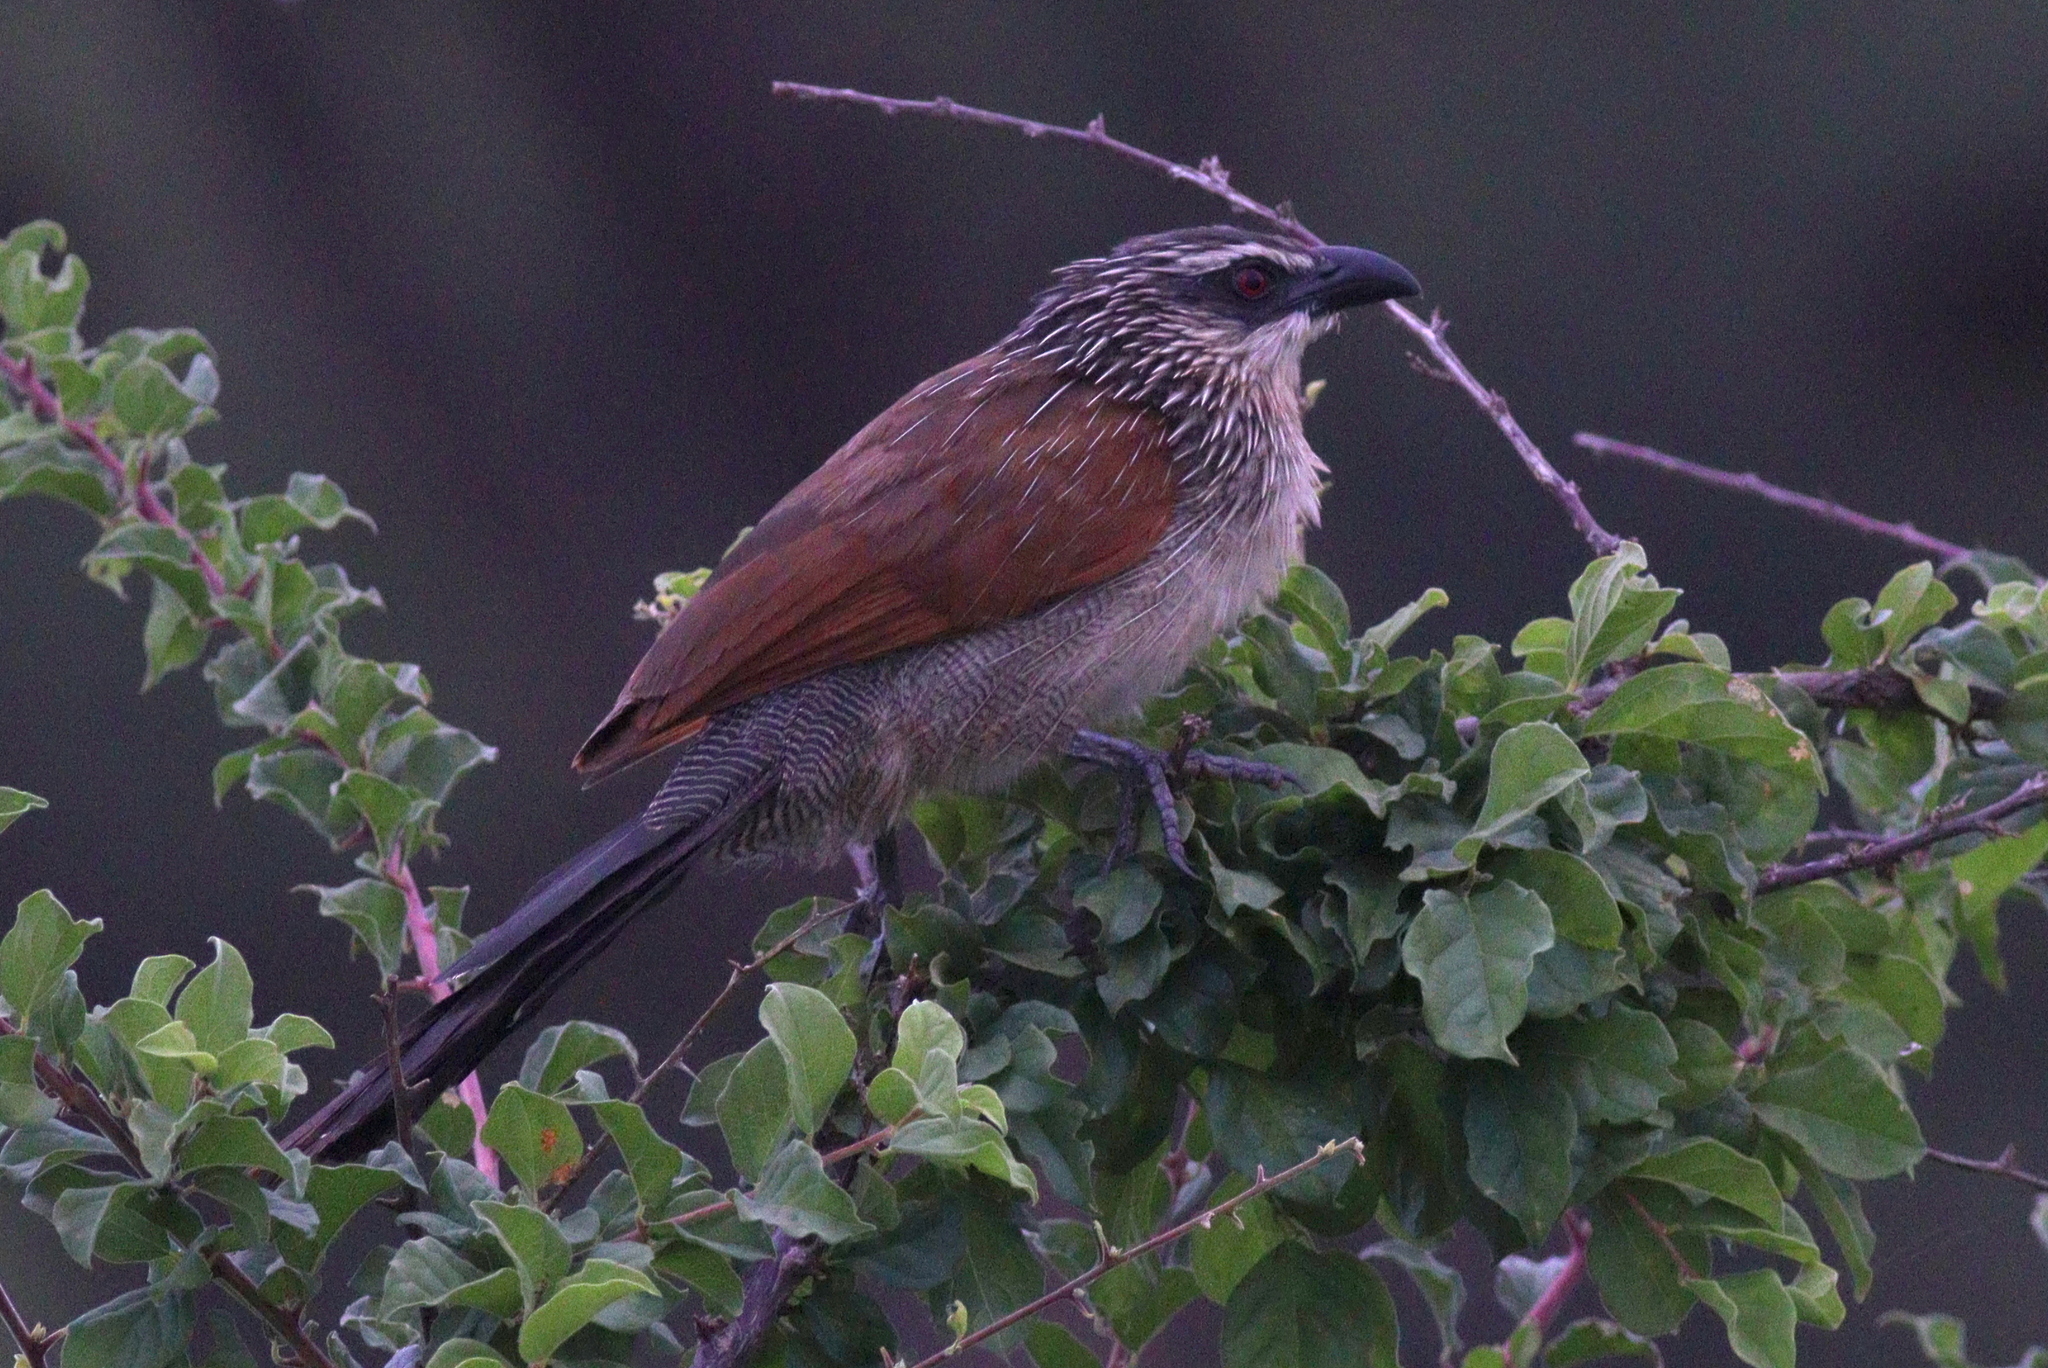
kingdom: Animalia
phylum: Chordata
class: Aves
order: Cuculiformes
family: Cuculidae
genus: Centropus
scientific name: Centropus superciliosus
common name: White-browed coucal
